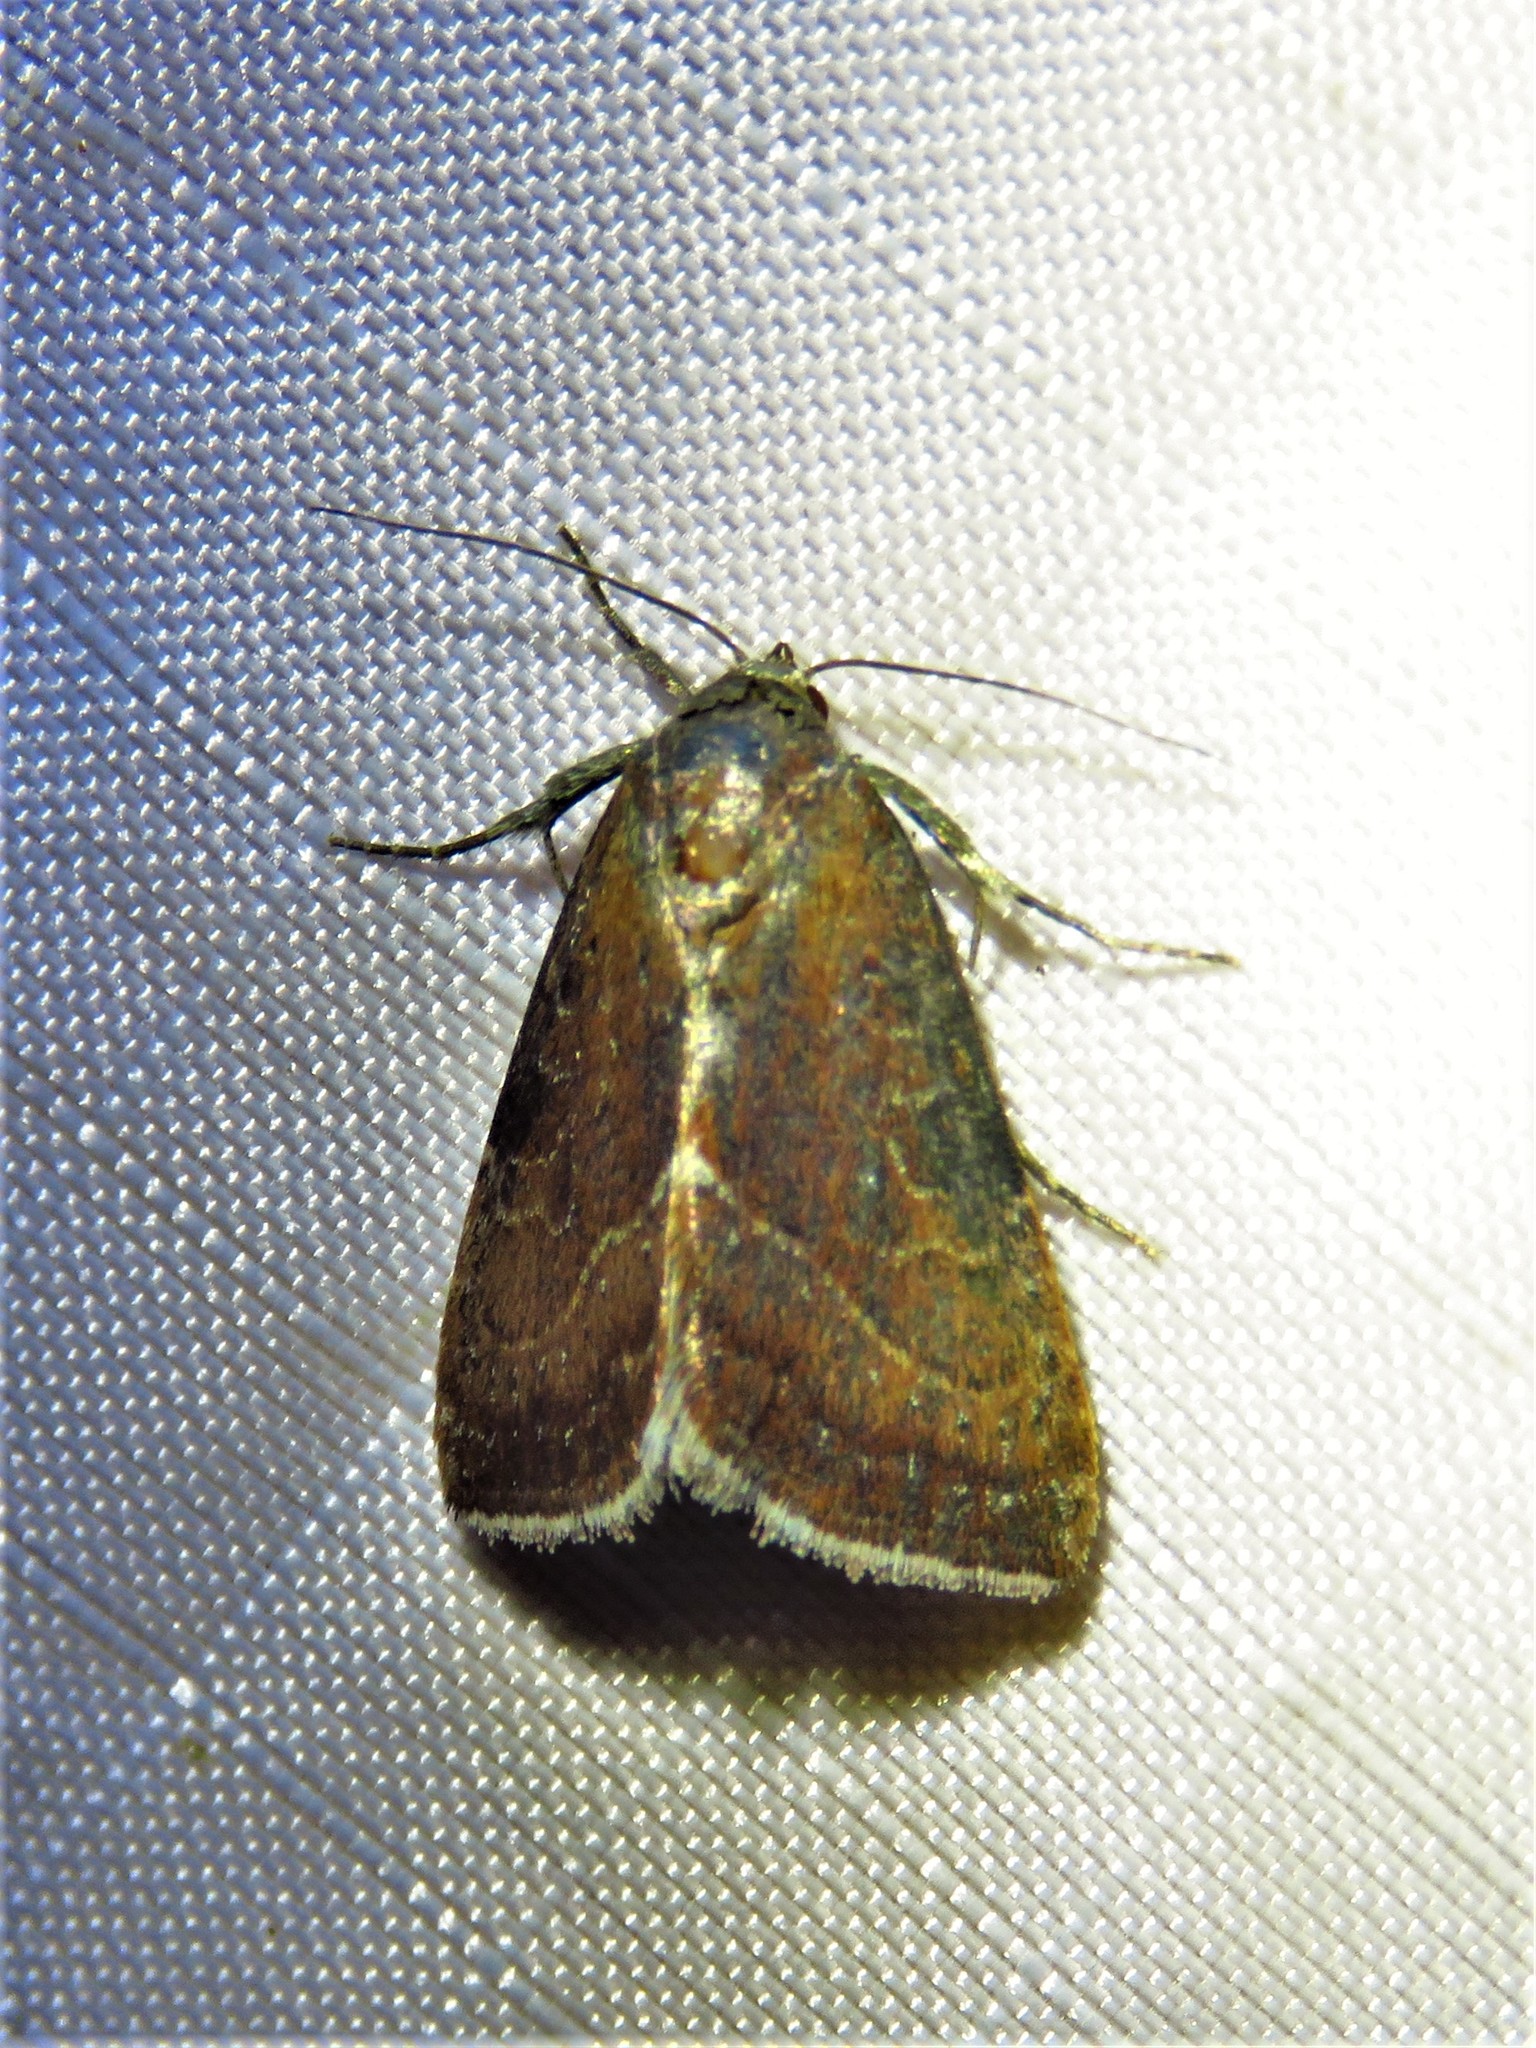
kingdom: Animalia
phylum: Arthropoda
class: Insecta
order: Lepidoptera
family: Noctuidae
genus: Galgula
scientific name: Galgula partita
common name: Wedgeling
